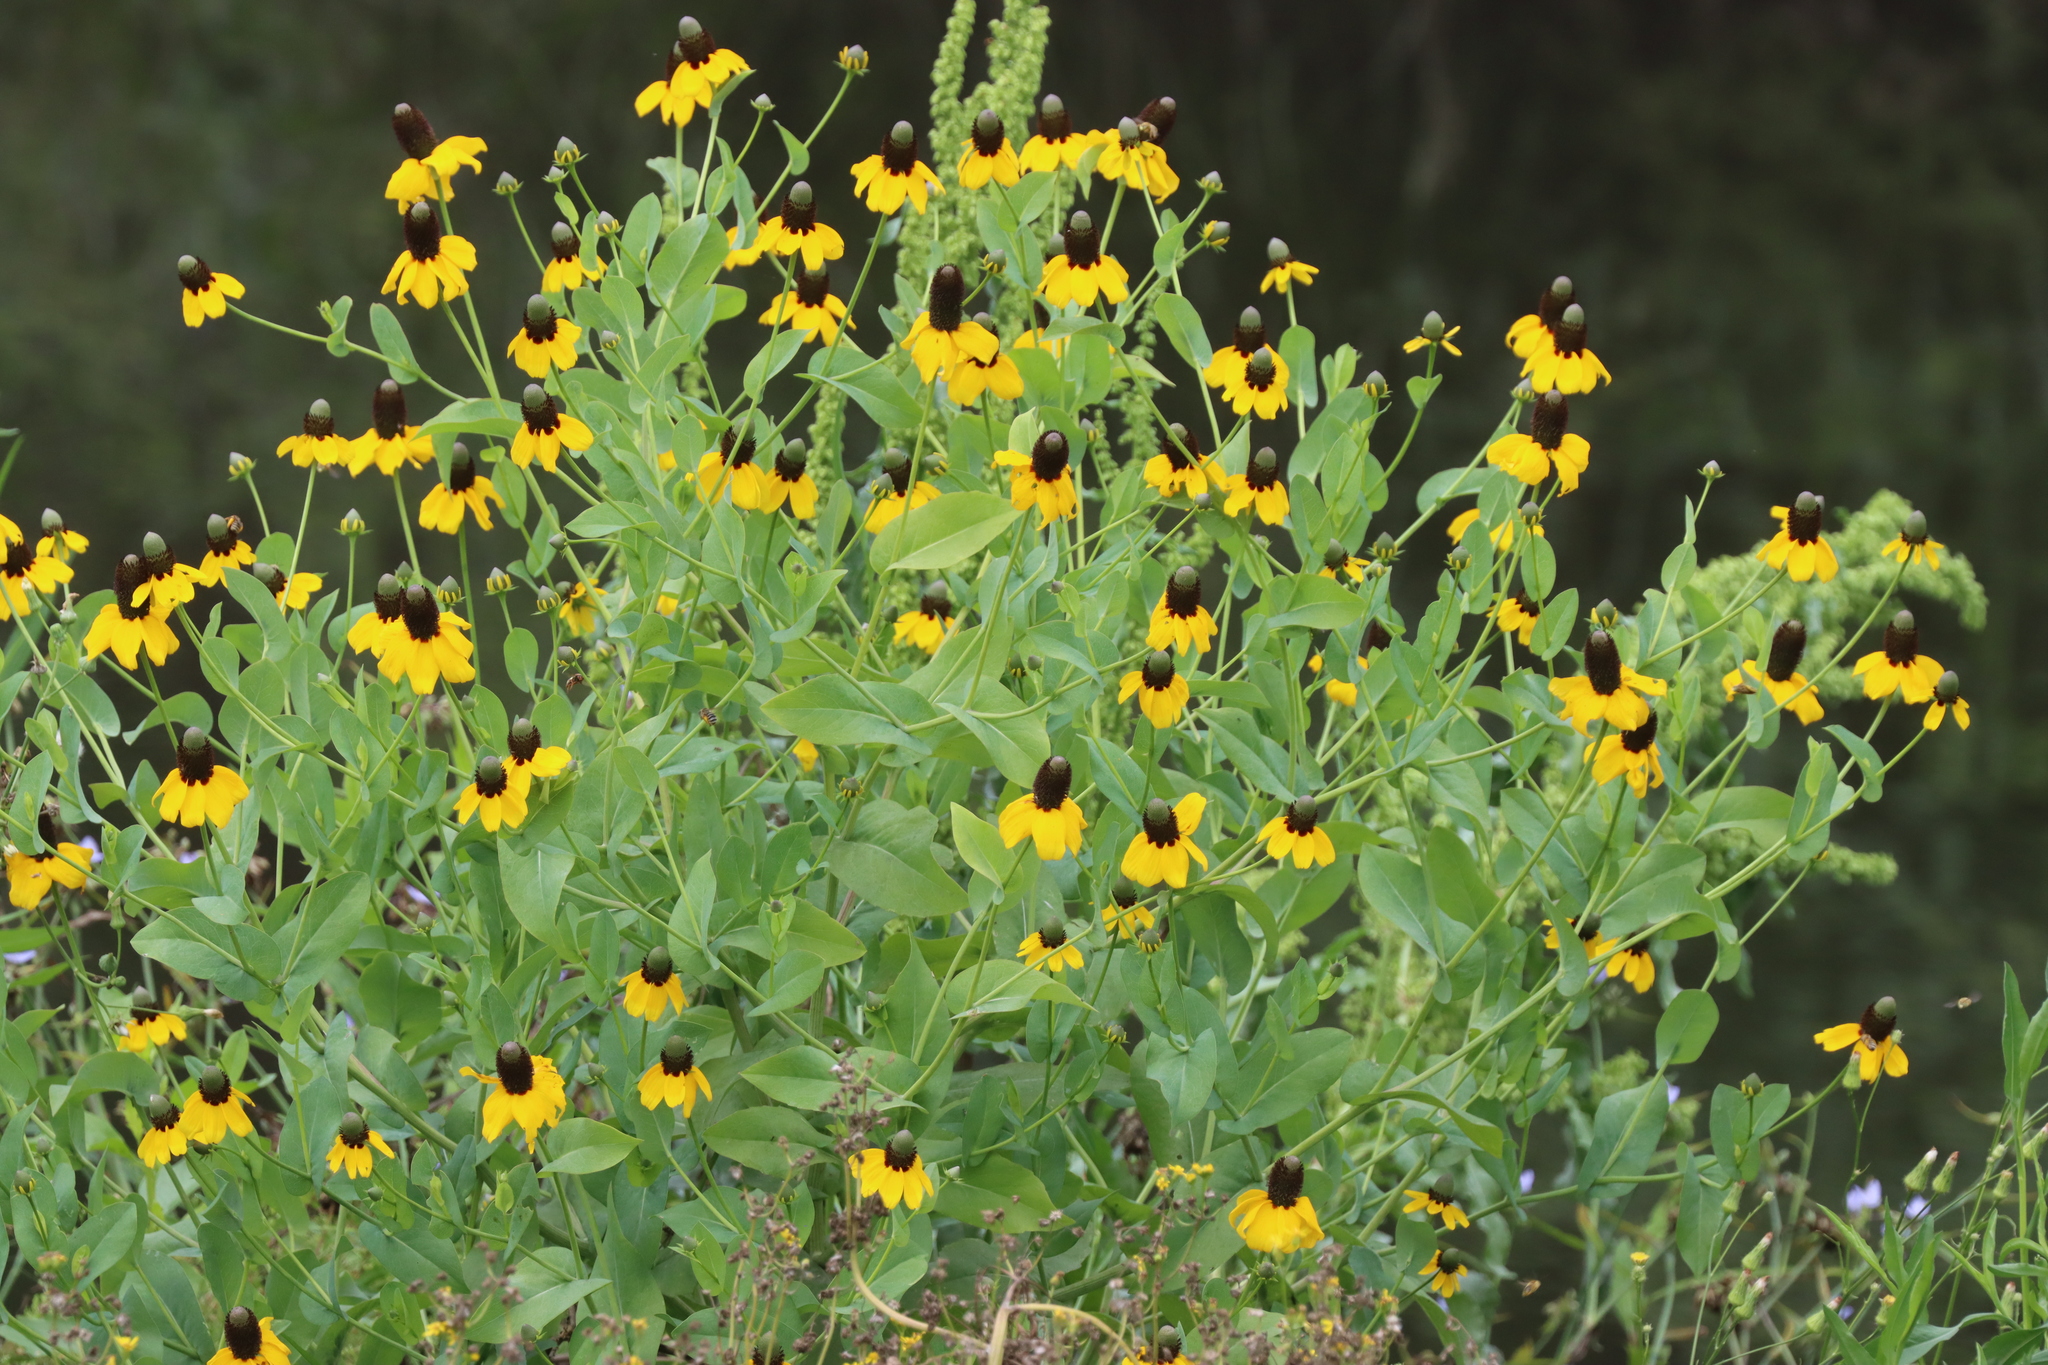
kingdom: Plantae
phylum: Tracheophyta
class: Magnoliopsida
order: Asterales
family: Asteraceae
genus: Rudbeckia
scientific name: Rudbeckia amplexicaulis
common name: Clasping-leaf coneflower
